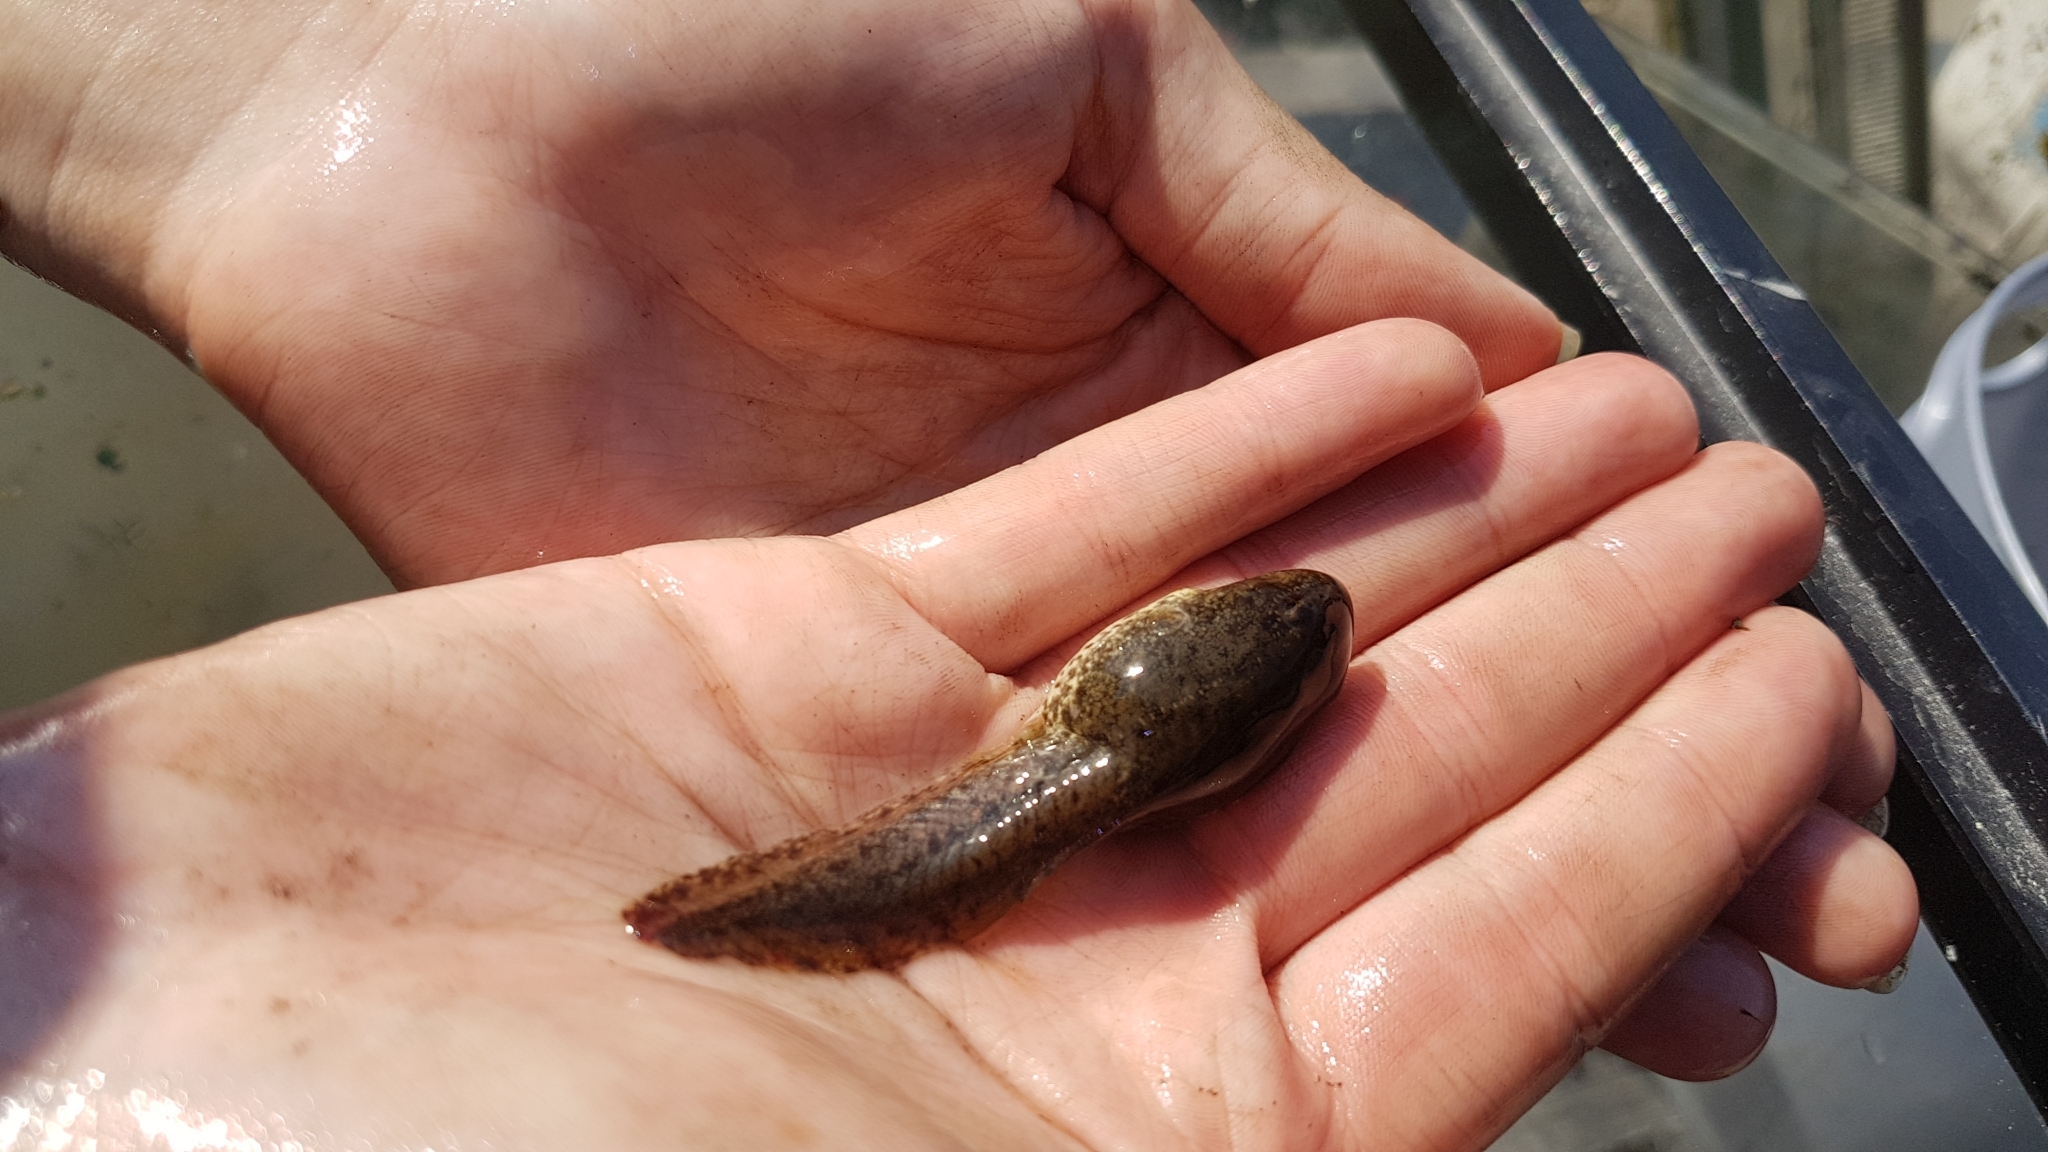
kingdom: Animalia
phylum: Chordata
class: Amphibia
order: Anura
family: Ranidae
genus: Lithobates
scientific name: Lithobates clamitans
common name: Green frog
